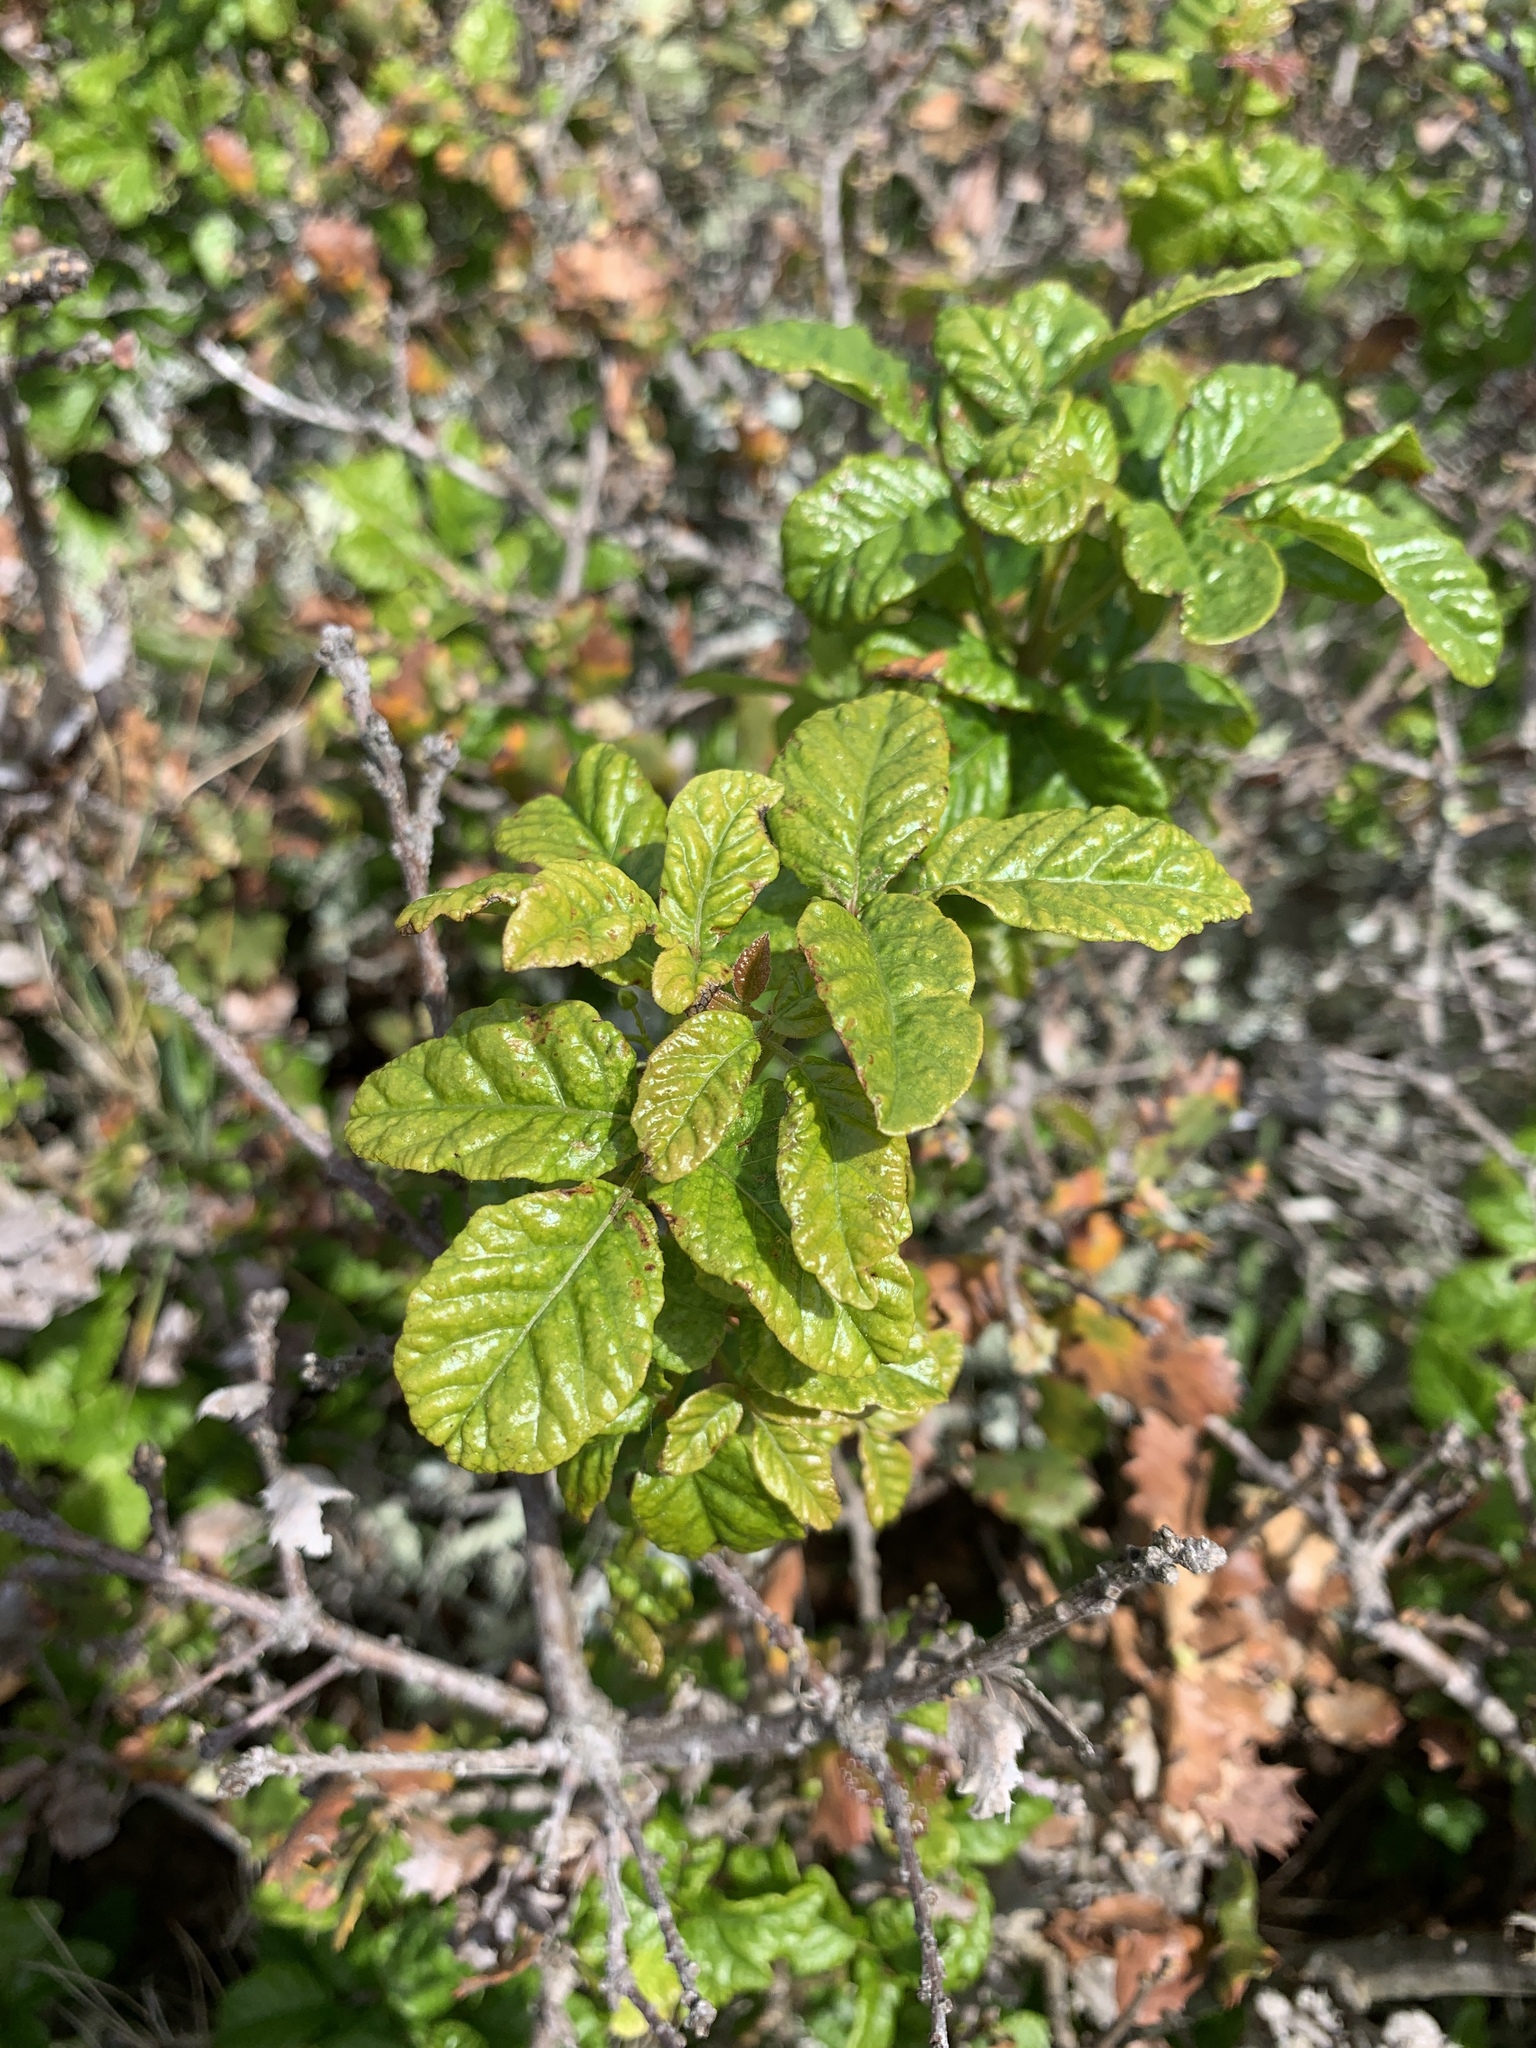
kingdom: Plantae
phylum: Tracheophyta
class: Magnoliopsida
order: Sapindales
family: Anacardiaceae
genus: Toxicodendron
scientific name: Toxicodendron diversilobum
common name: Pacific poison-oak
